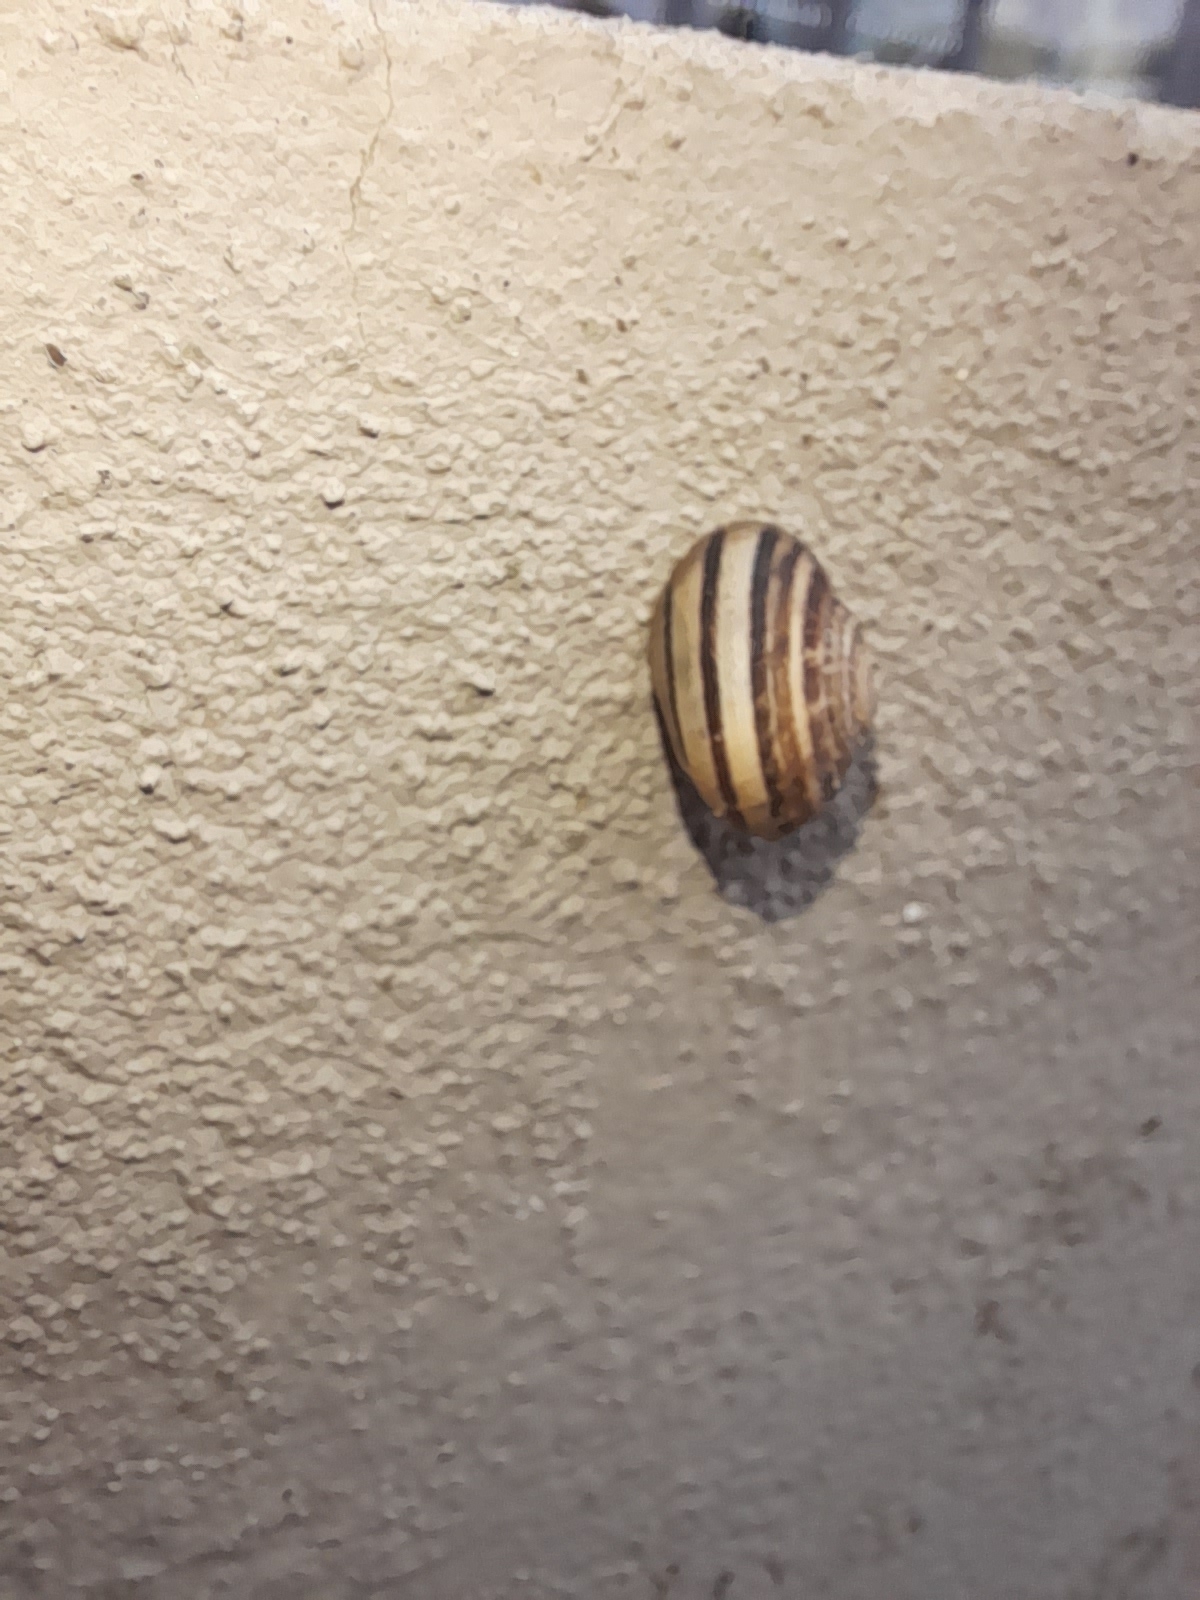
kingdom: Animalia
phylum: Mollusca
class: Gastropoda
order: Stylommatophora
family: Helicidae
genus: Eobania
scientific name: Eobania vermiculata
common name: Chocolateband snail
